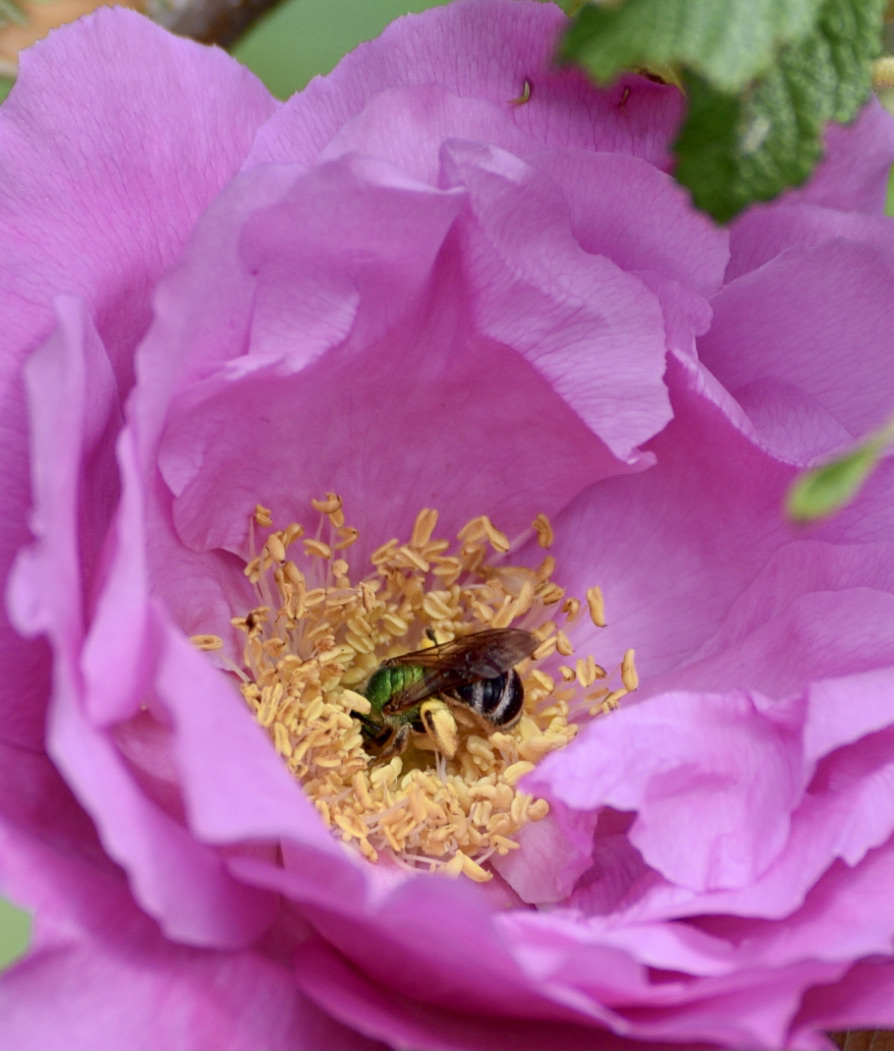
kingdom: Animalia
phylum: Arthropoda
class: Insecta
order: Hymenoptera
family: Halictidae
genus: Agapostemon
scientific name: Agapostemon virescens
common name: Bicolored striped sweat bee
